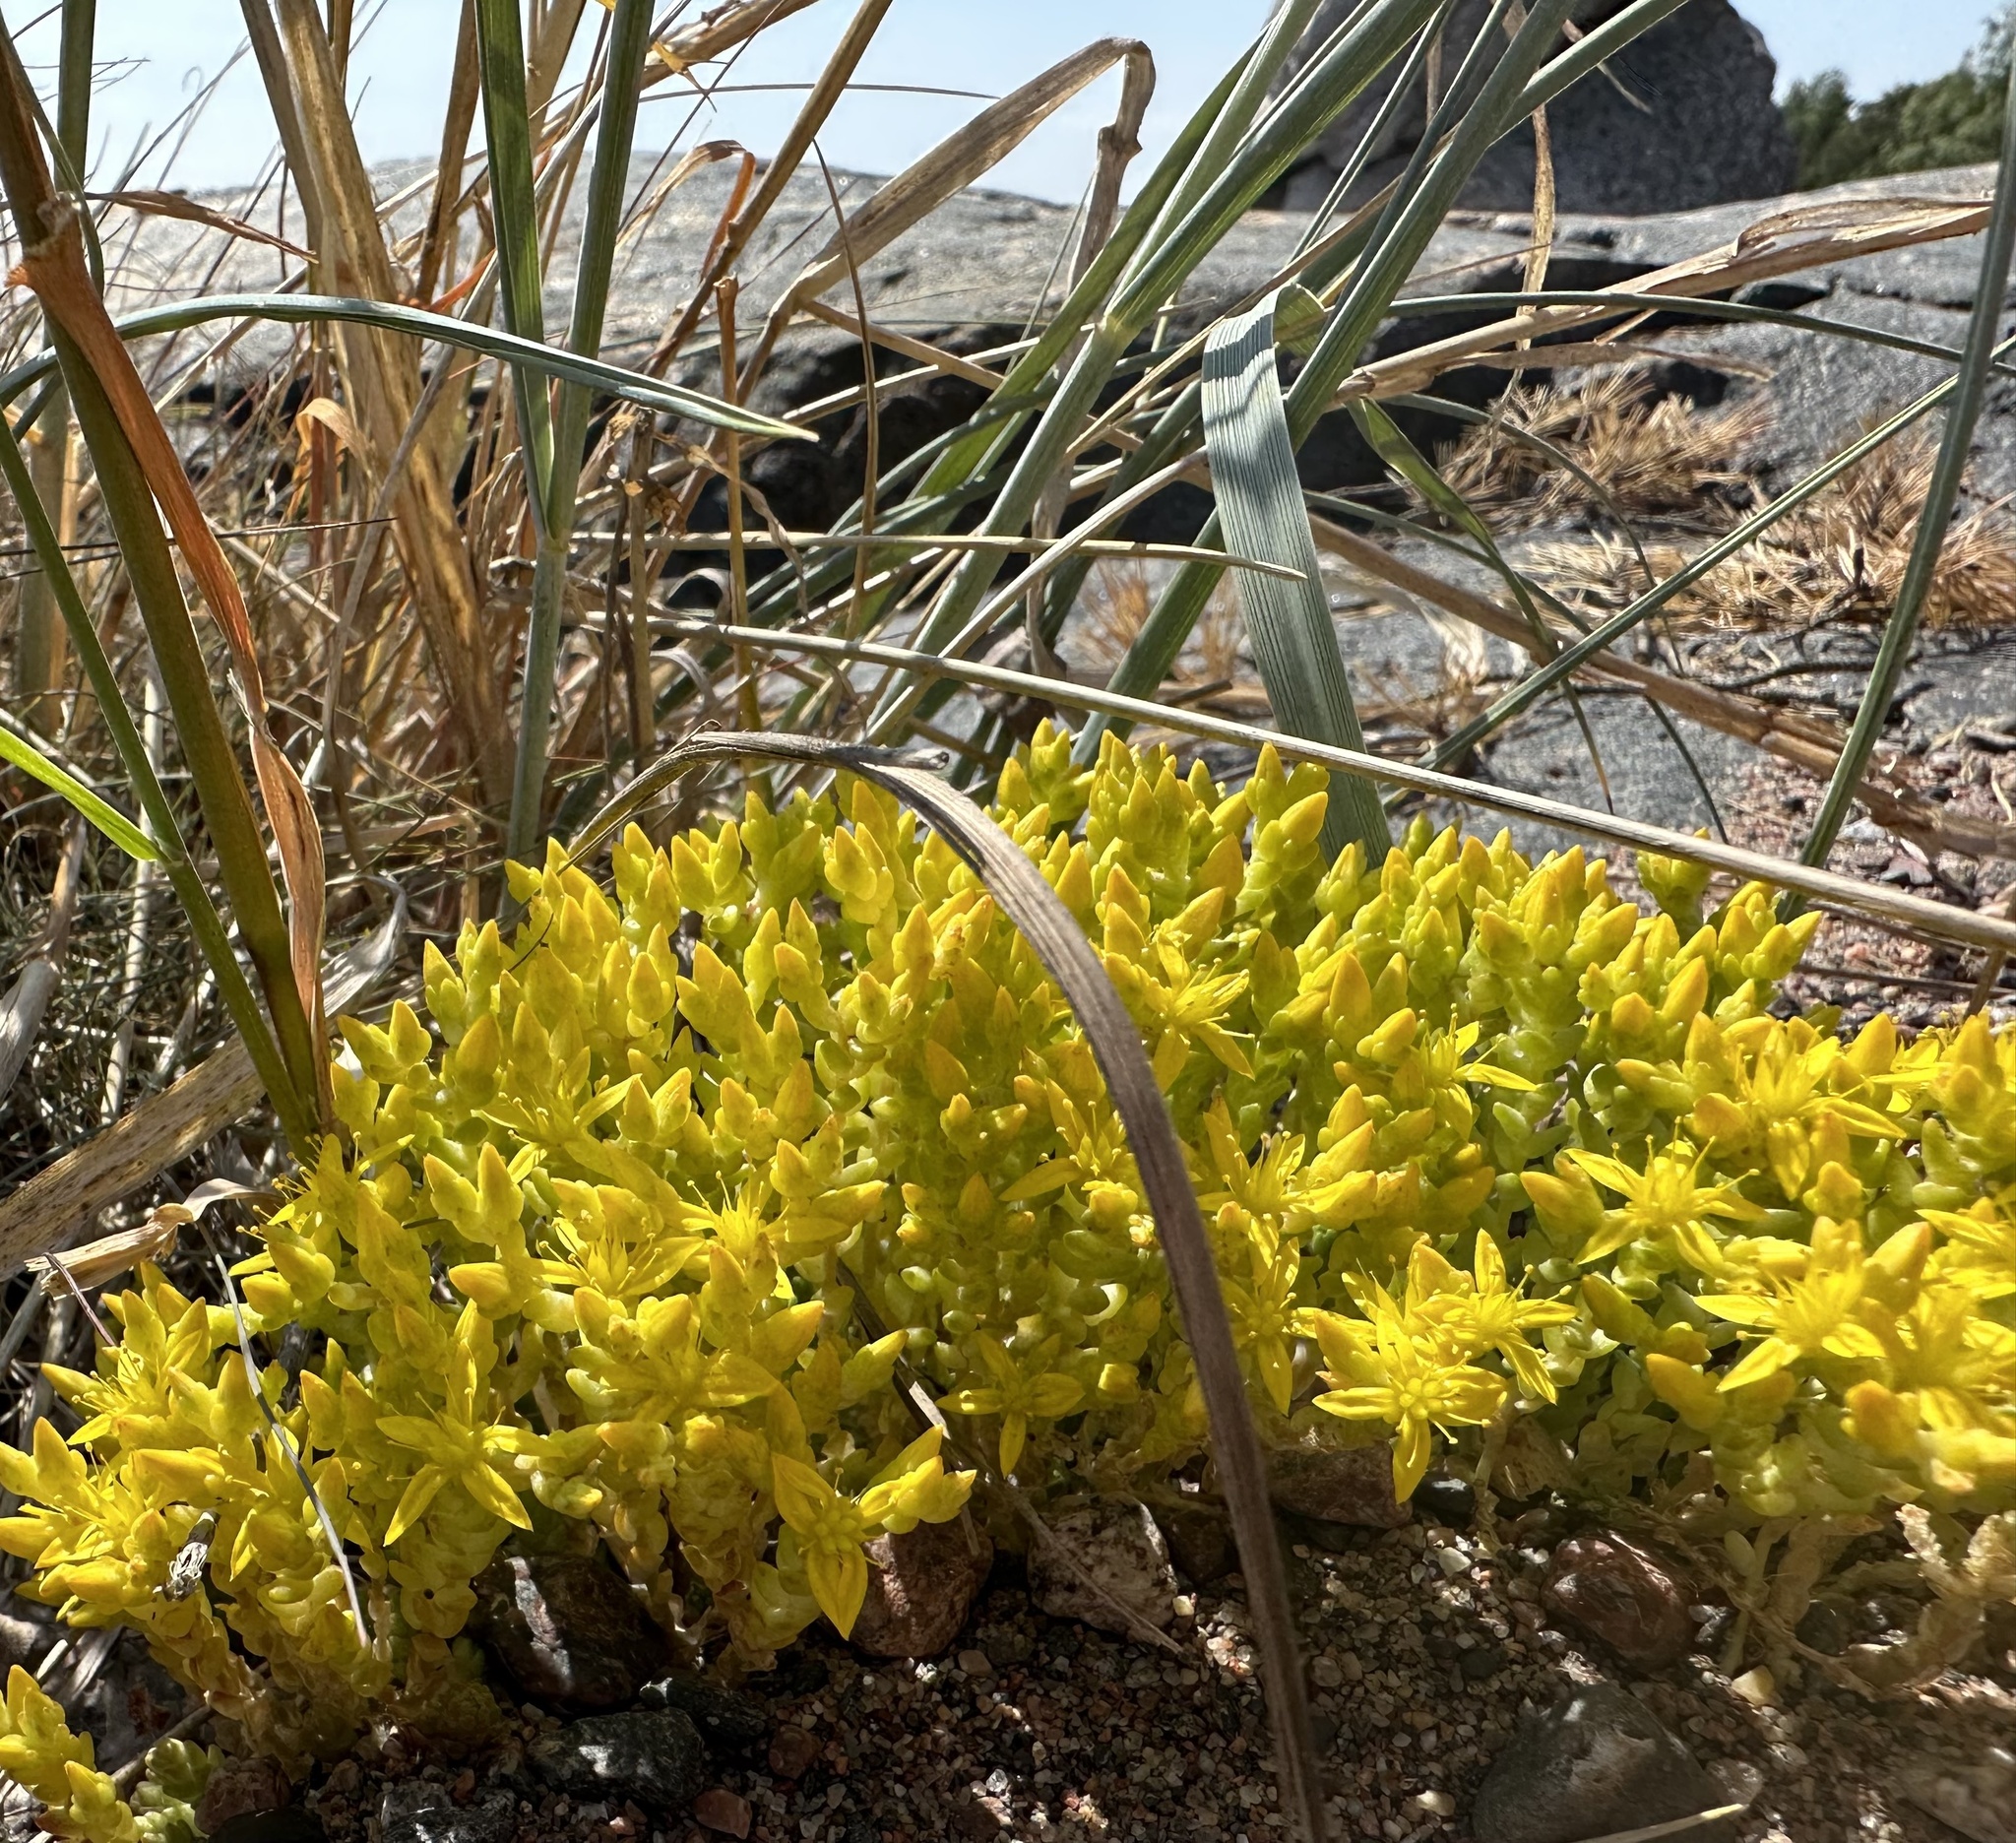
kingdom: Plantae
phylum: Tracheophyta
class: Magnoliopsida
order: Saxifragales
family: Crassulaceae
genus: Sedum
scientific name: Sedum acre
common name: Biting stonecrop
